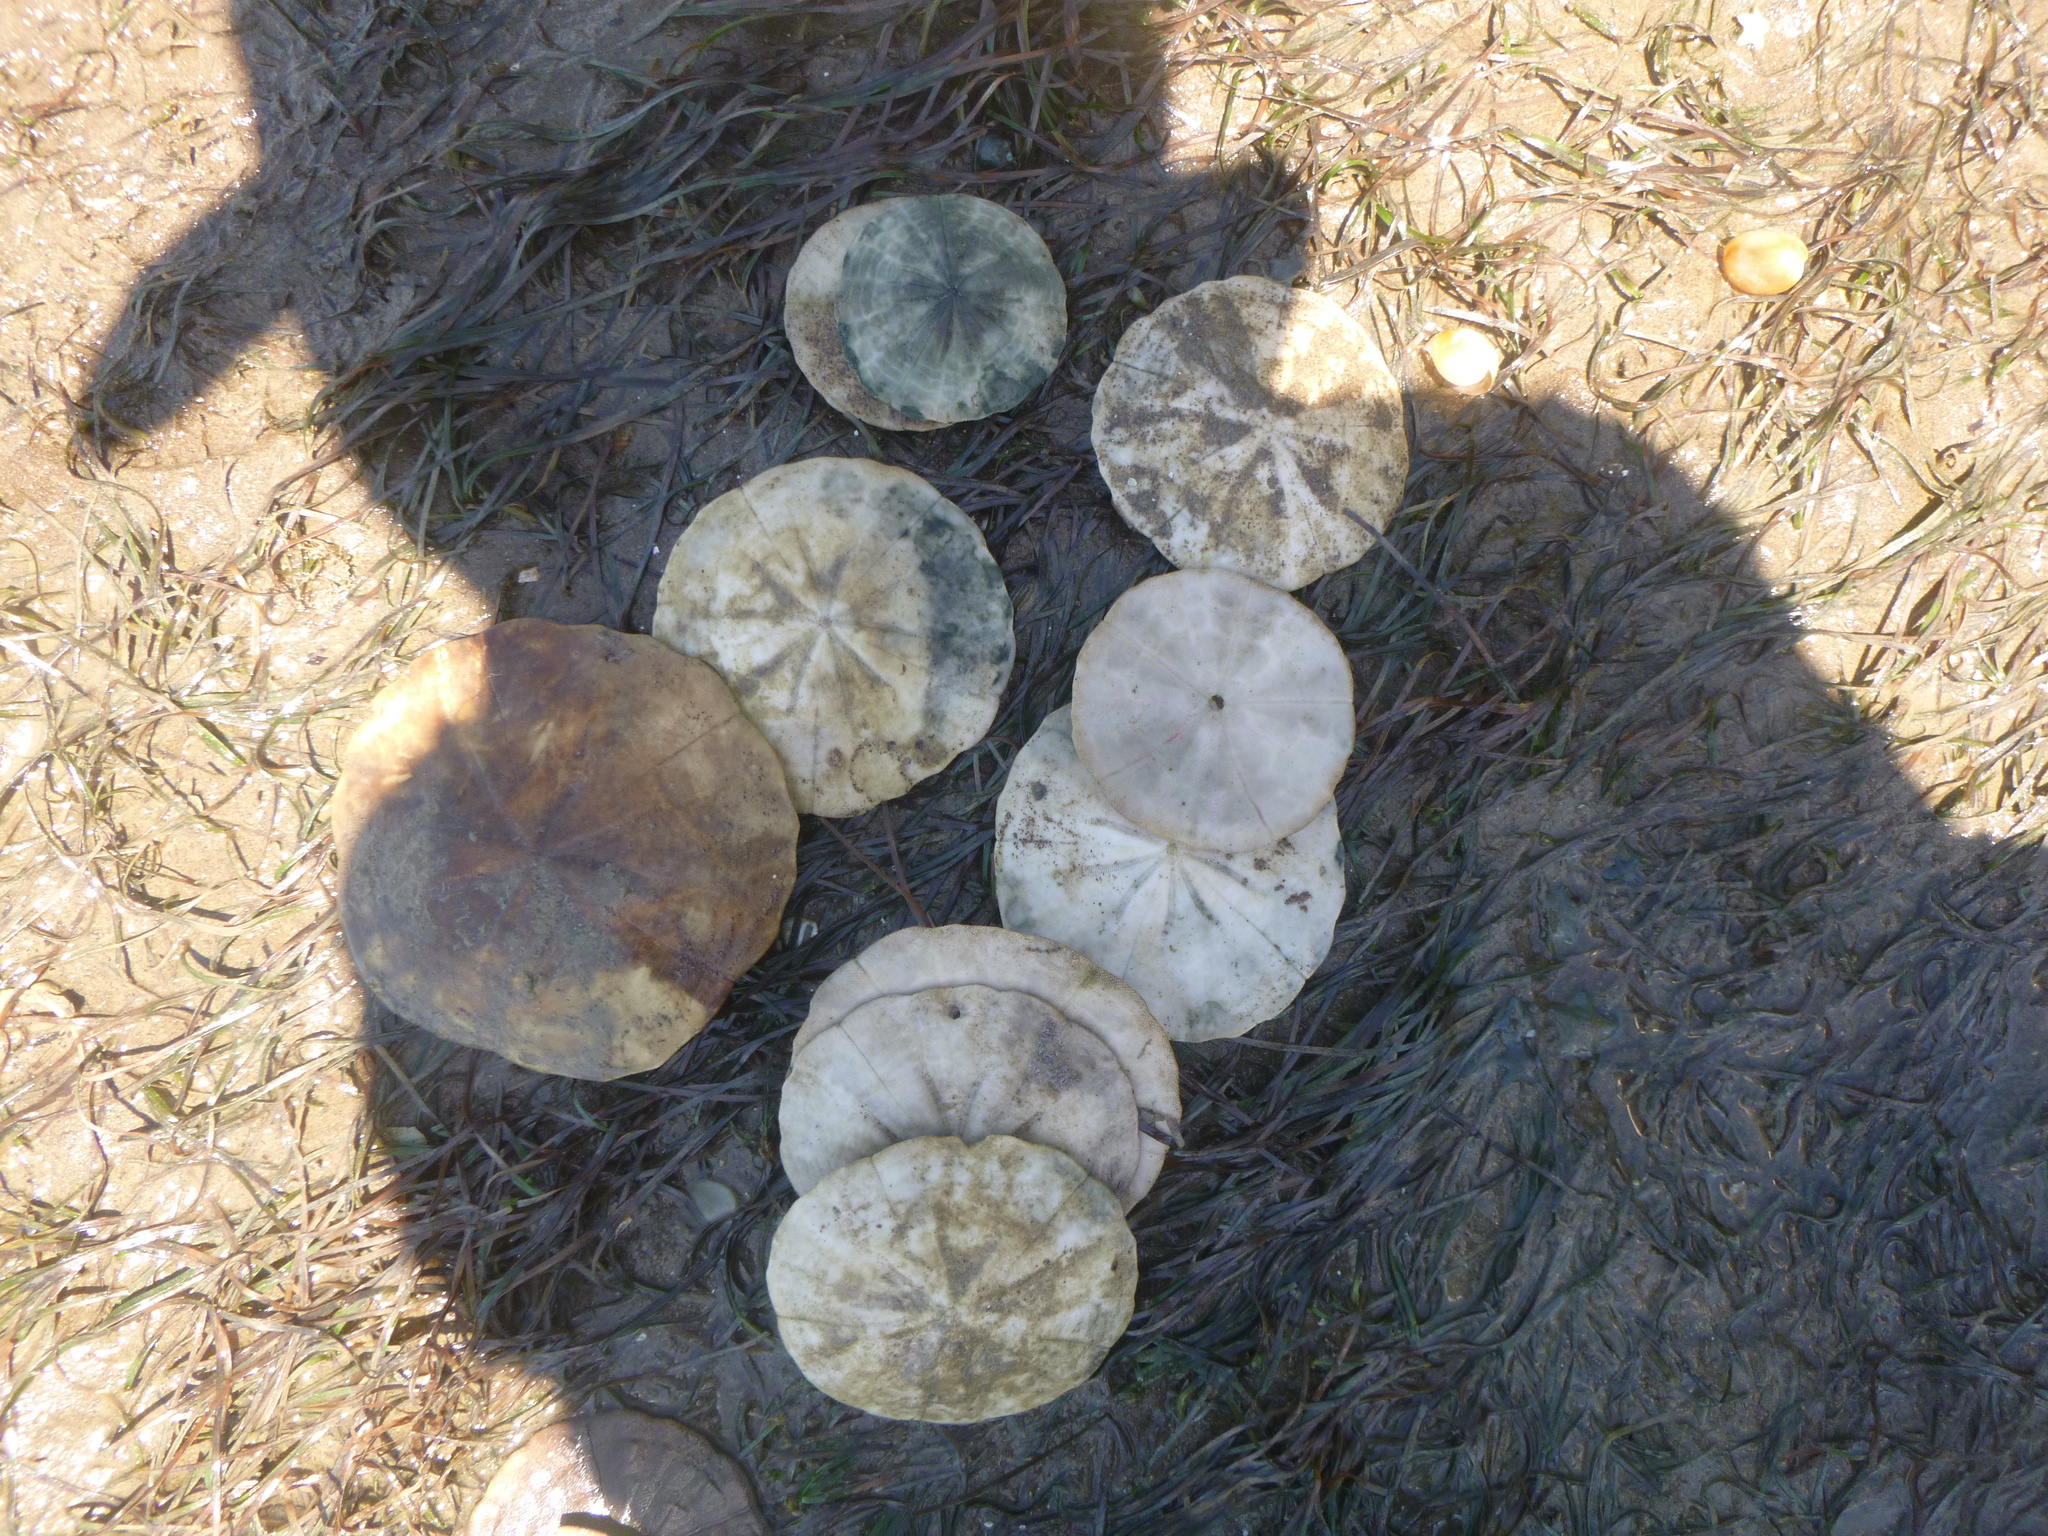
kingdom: Animalia
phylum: Echinodermata
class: Echinoidea
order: Clypeasteroida
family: Clypeasteridae
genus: Fellaster
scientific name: Fellaster zelandiae
